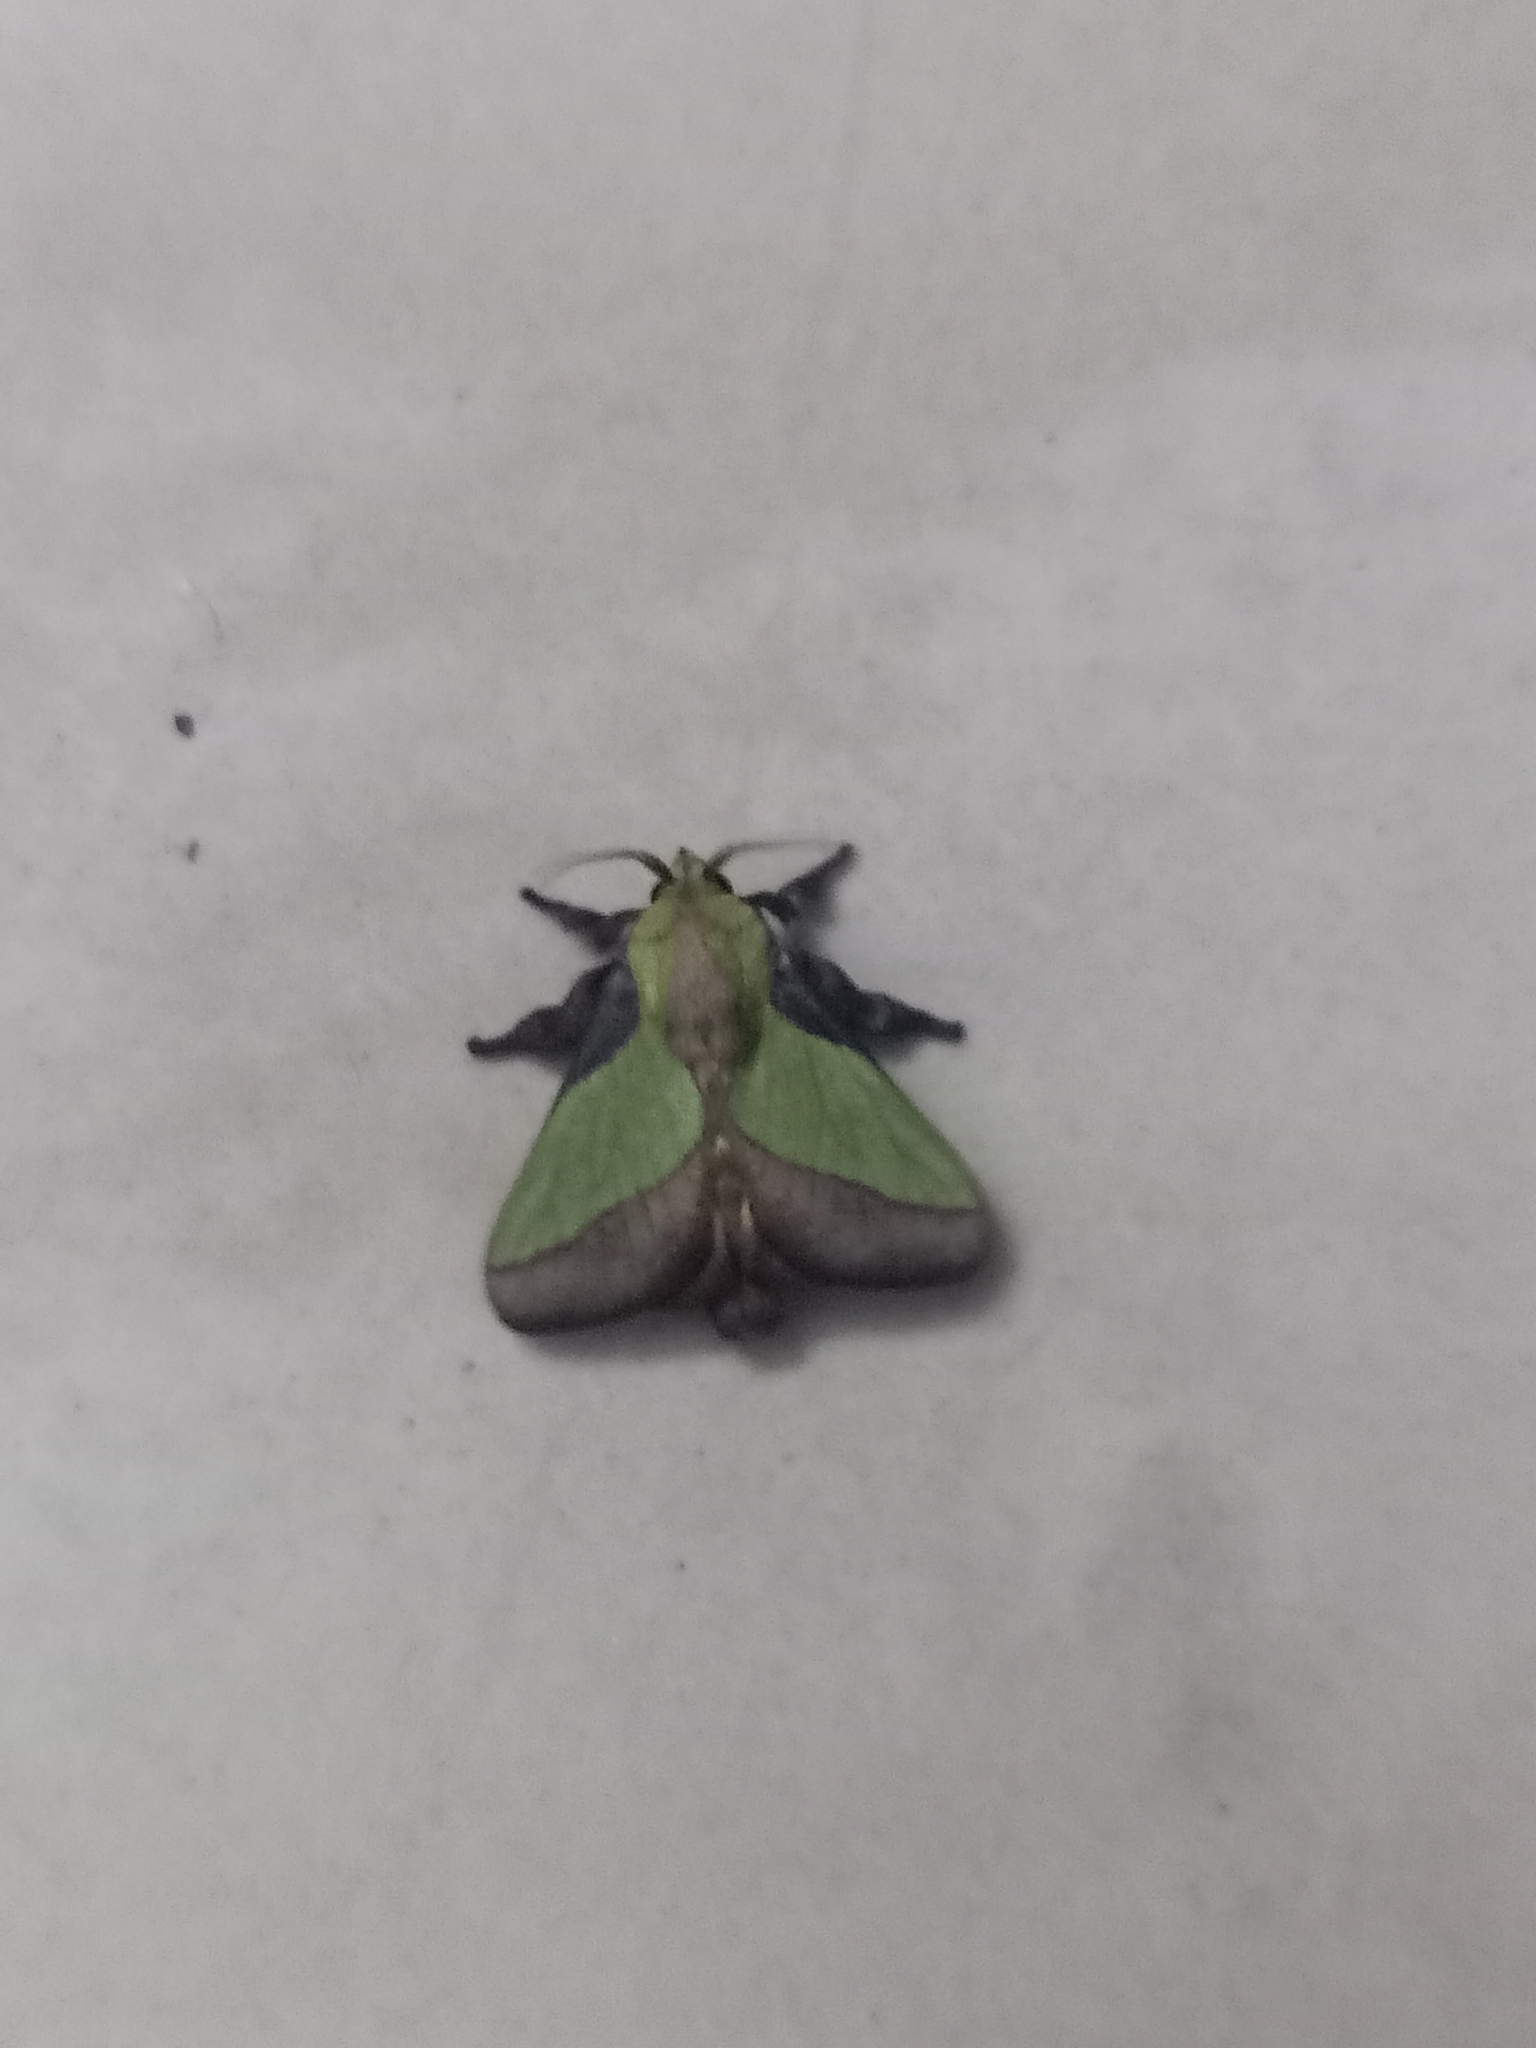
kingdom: Animalia
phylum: Arthropoda
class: Insecta
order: Lepidoptera
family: Limacodidae
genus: Parasa
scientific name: Parasa lepida
